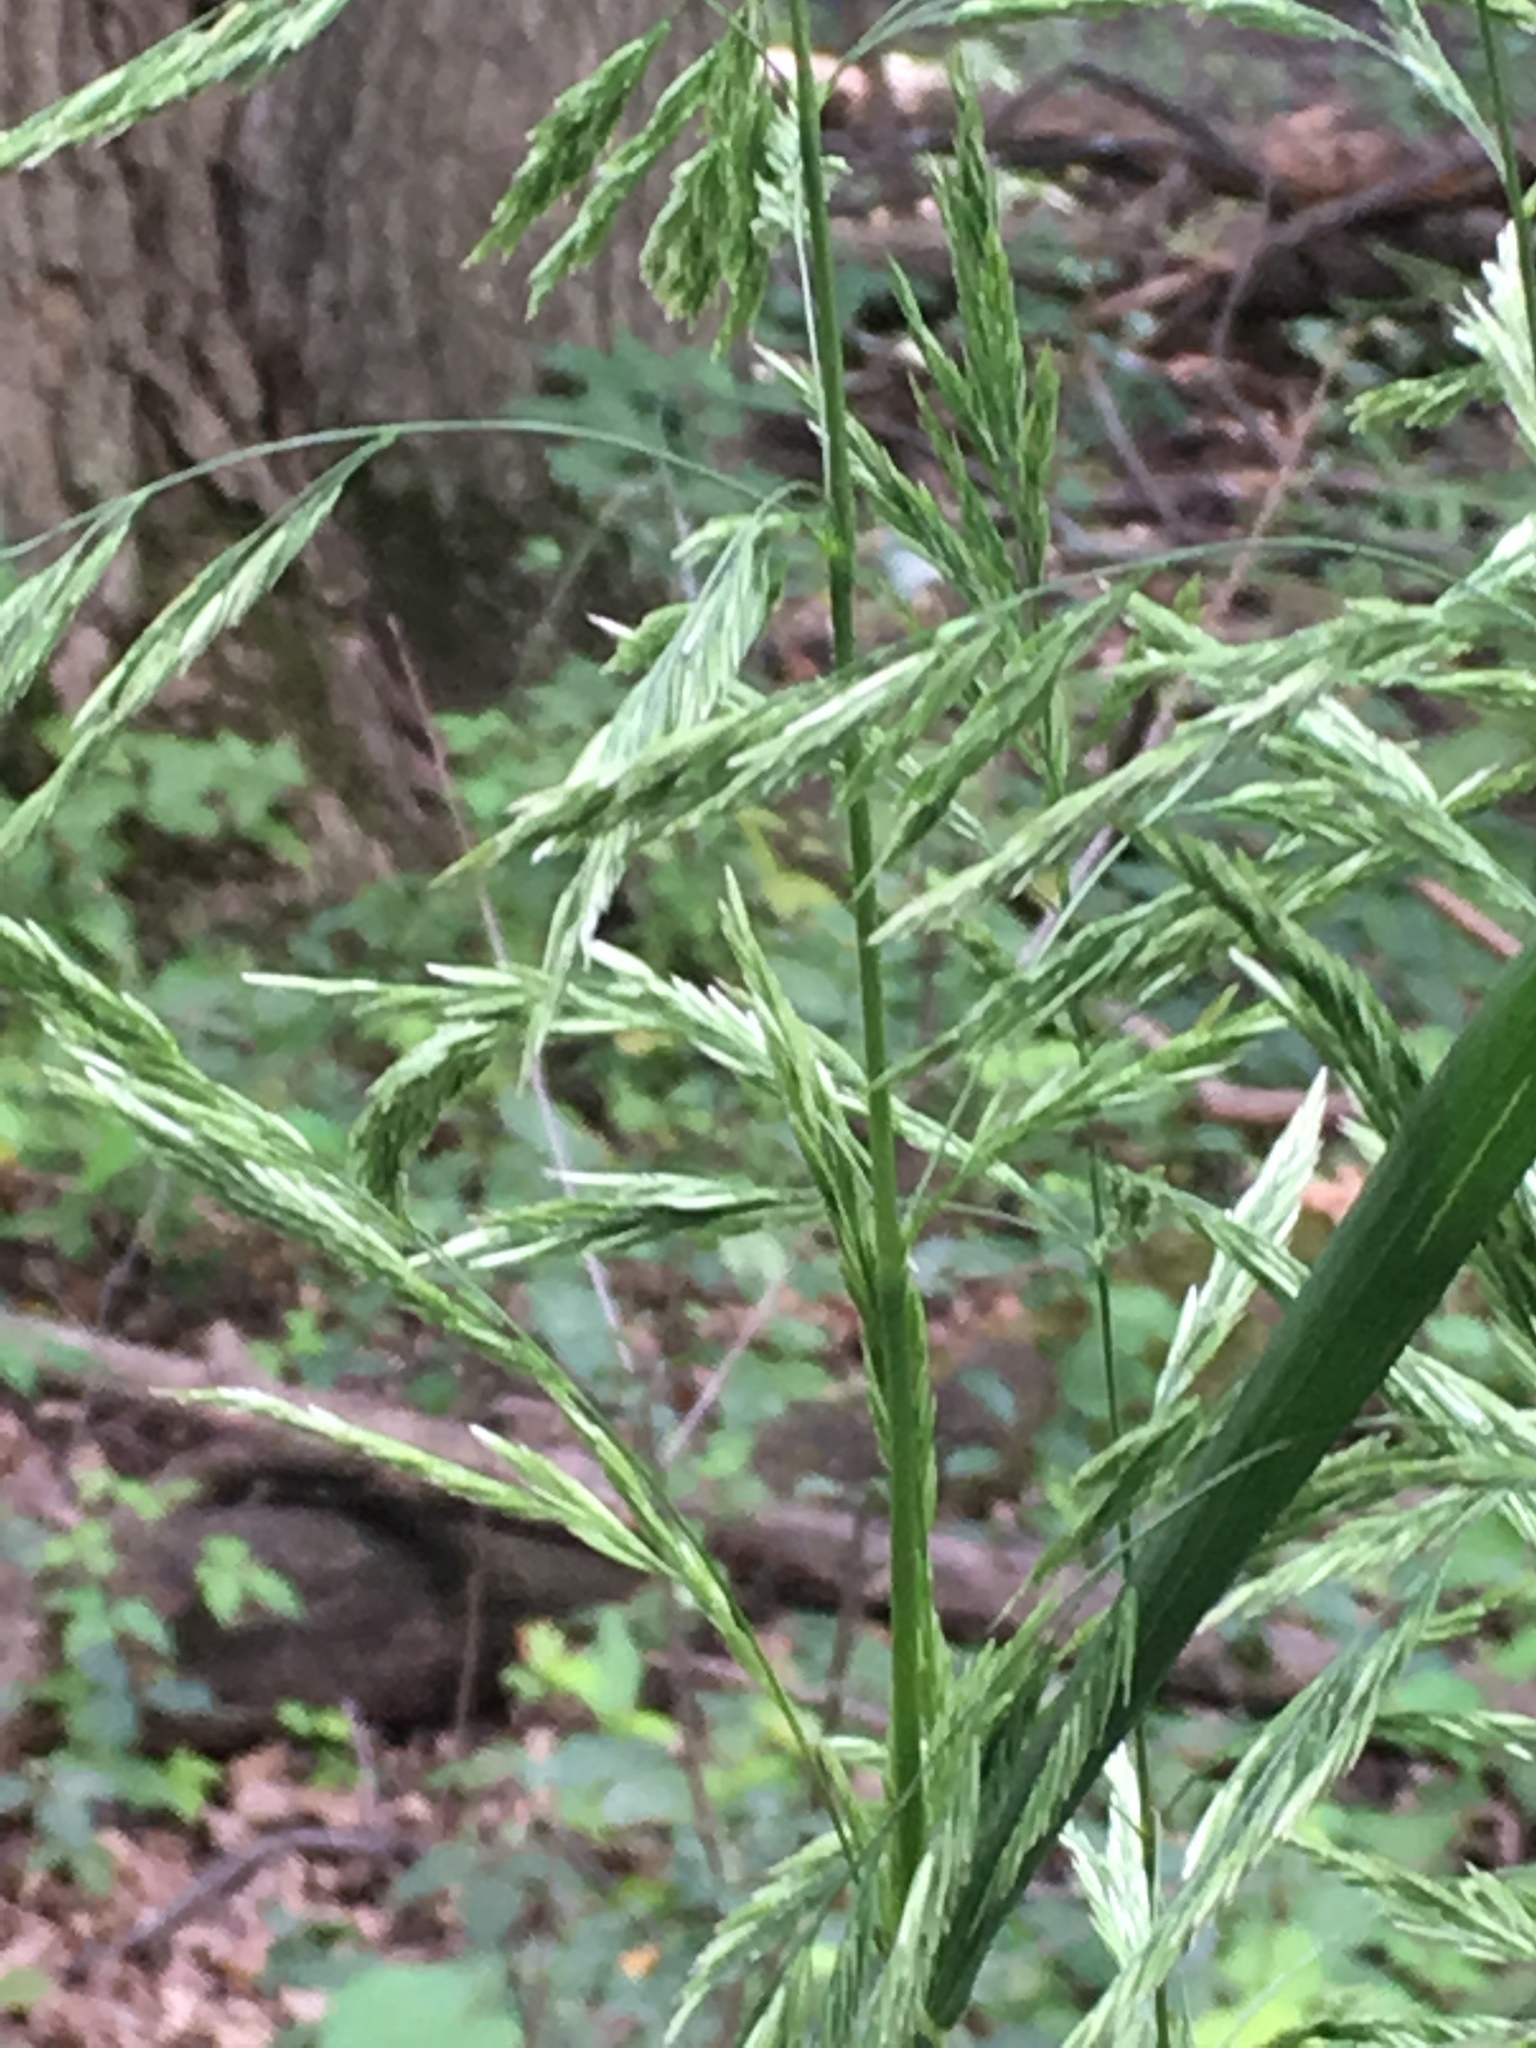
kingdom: Plantae
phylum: Tracheophyta
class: Liliopsida
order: Poales
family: Poaceae
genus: Cinna
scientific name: Cinna arundinacea
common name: Stout woodreed
